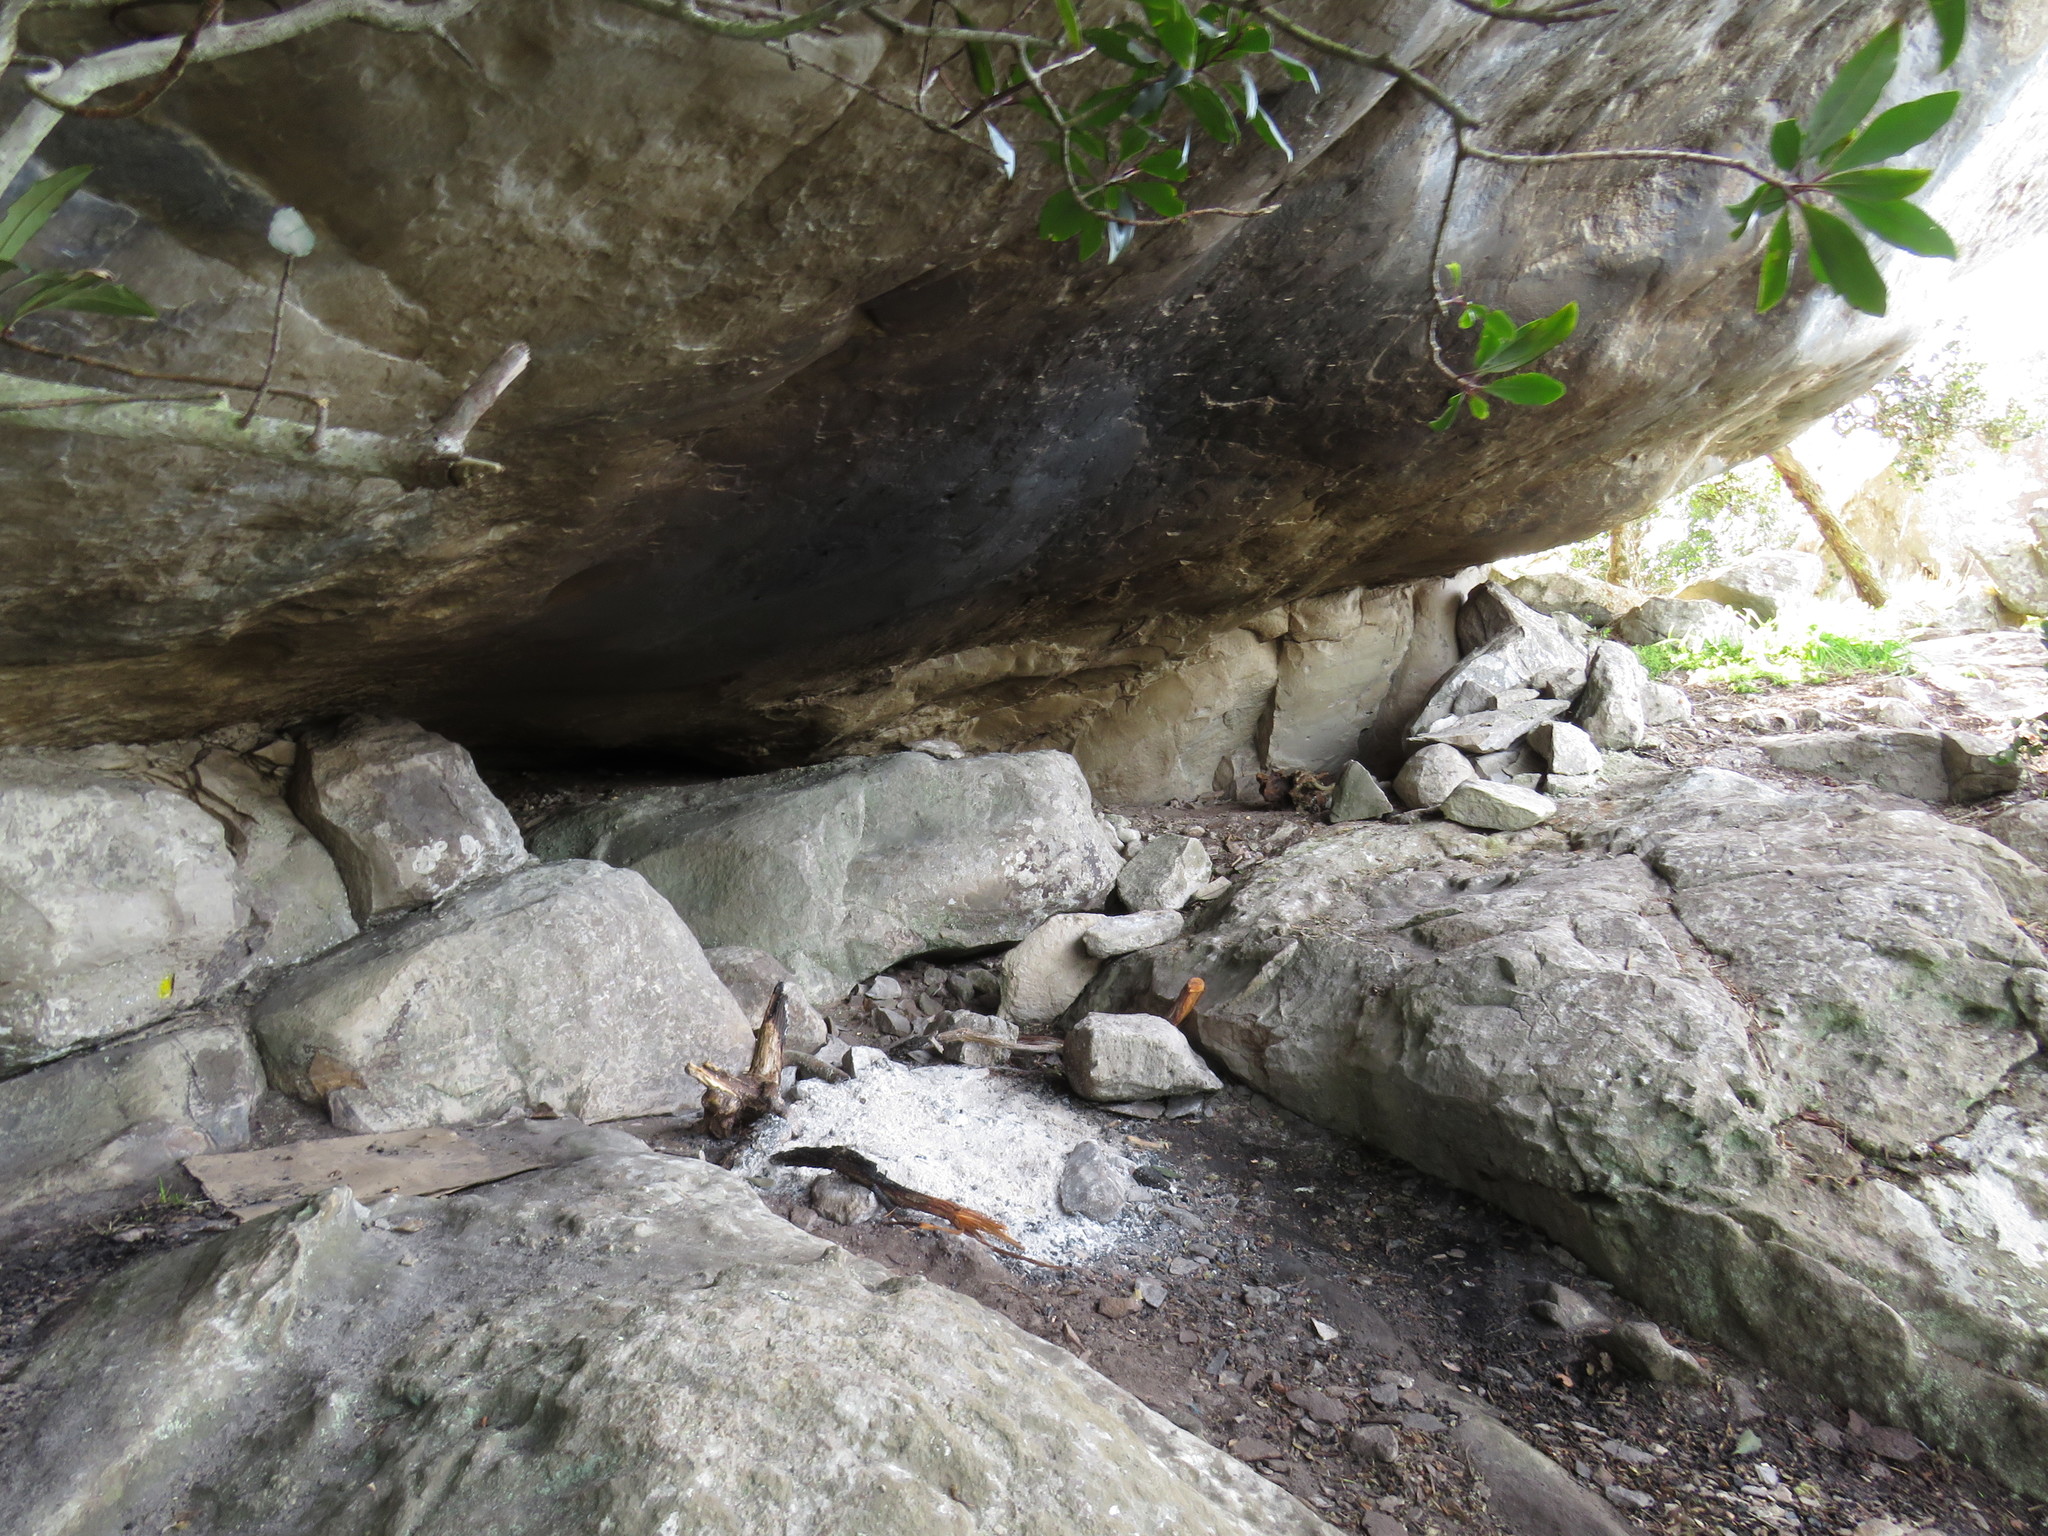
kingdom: Plantae
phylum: Tracheophyta
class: Magnoliopsida
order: Ericales
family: Primulaceae
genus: Myrsine
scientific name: Myrsine melanophloeos
